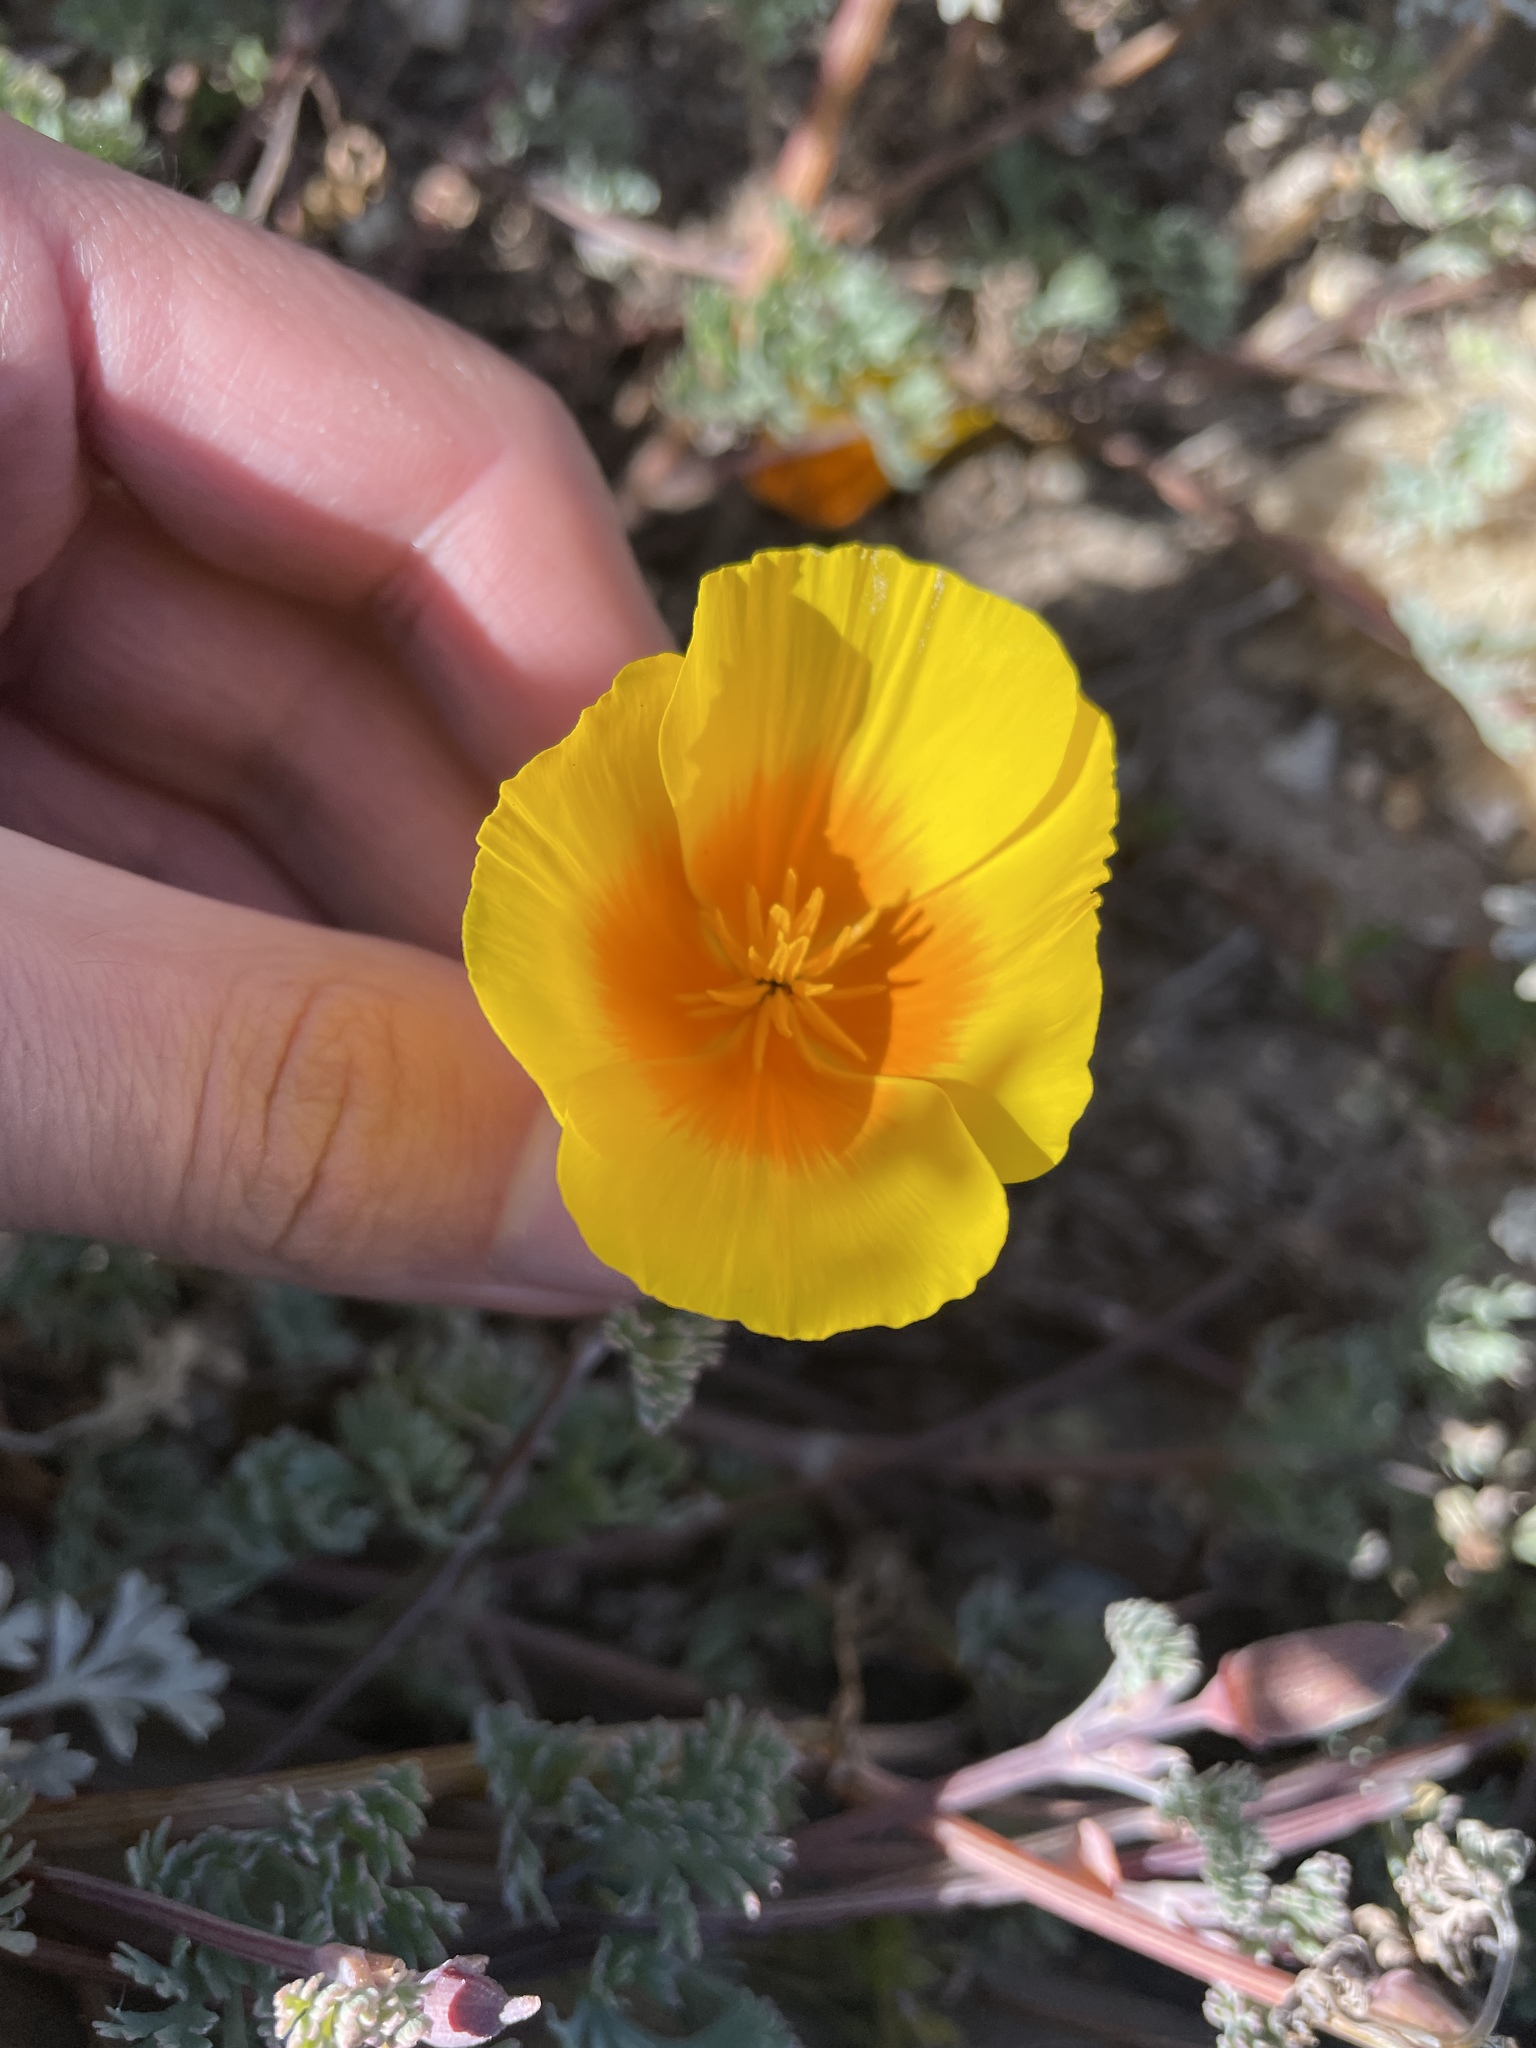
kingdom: Plantae
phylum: Tracheophyta
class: Magnoliopsida
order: Ranunculales
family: Papaveraceae
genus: Eschscholzia
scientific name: Eschscholzia californica
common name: California poppy
